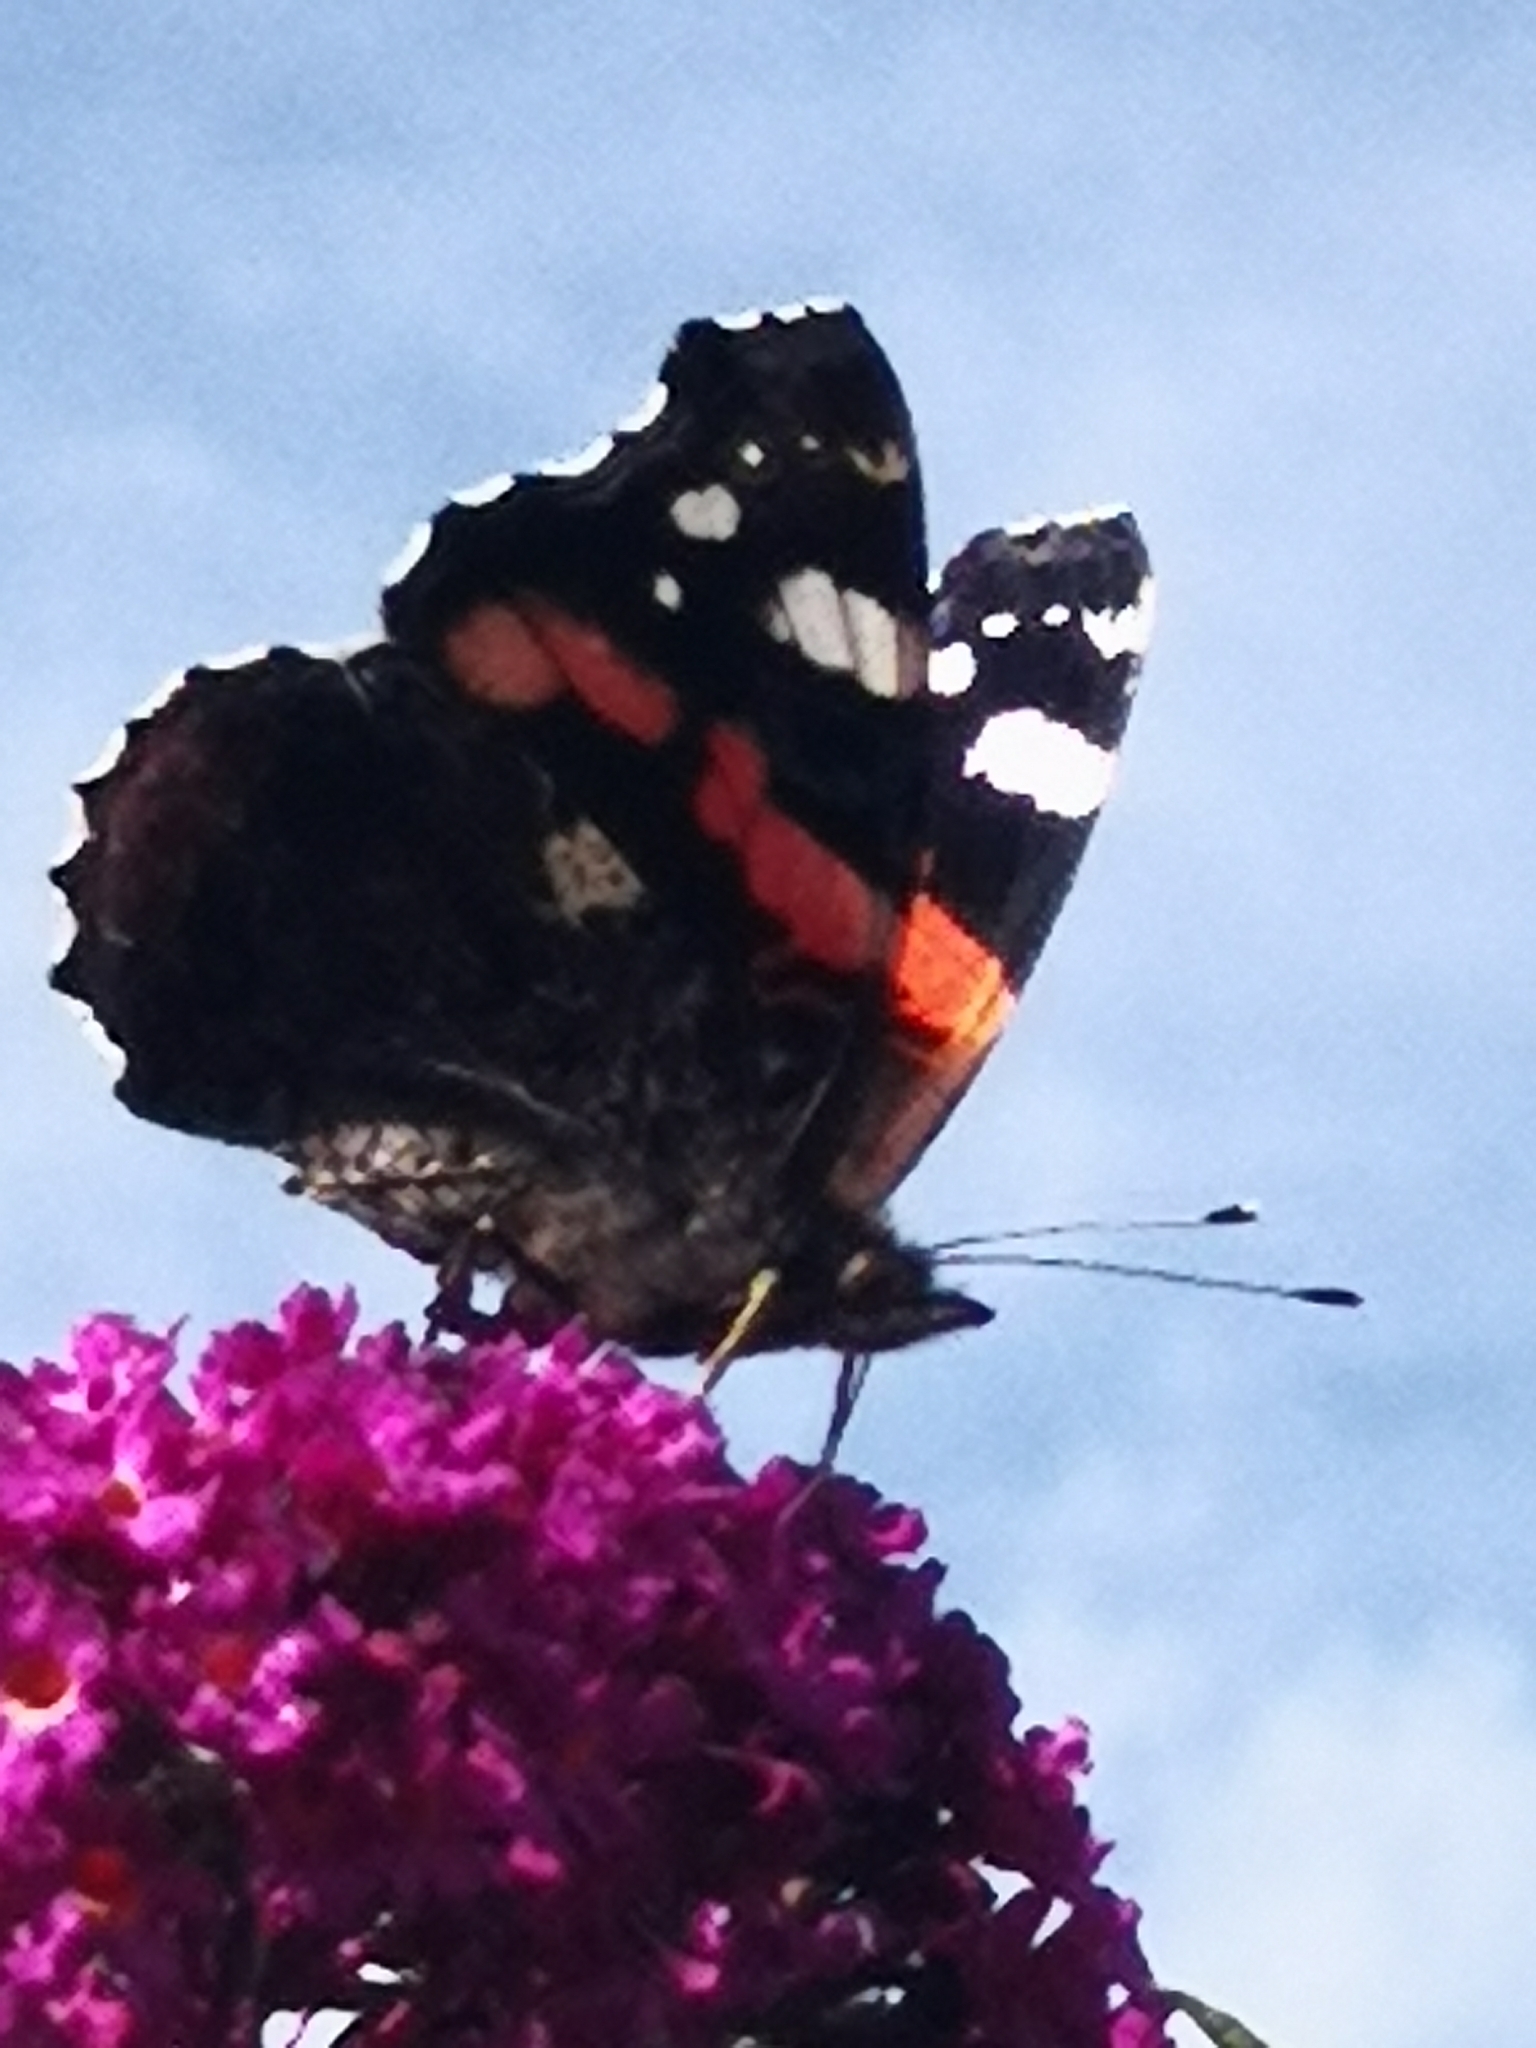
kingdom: Animalia
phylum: Arthropoda
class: Insecta
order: Lepidoptera
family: Nymphalidae
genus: Vanessa
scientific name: Vanessa atalanta
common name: Red admiral
